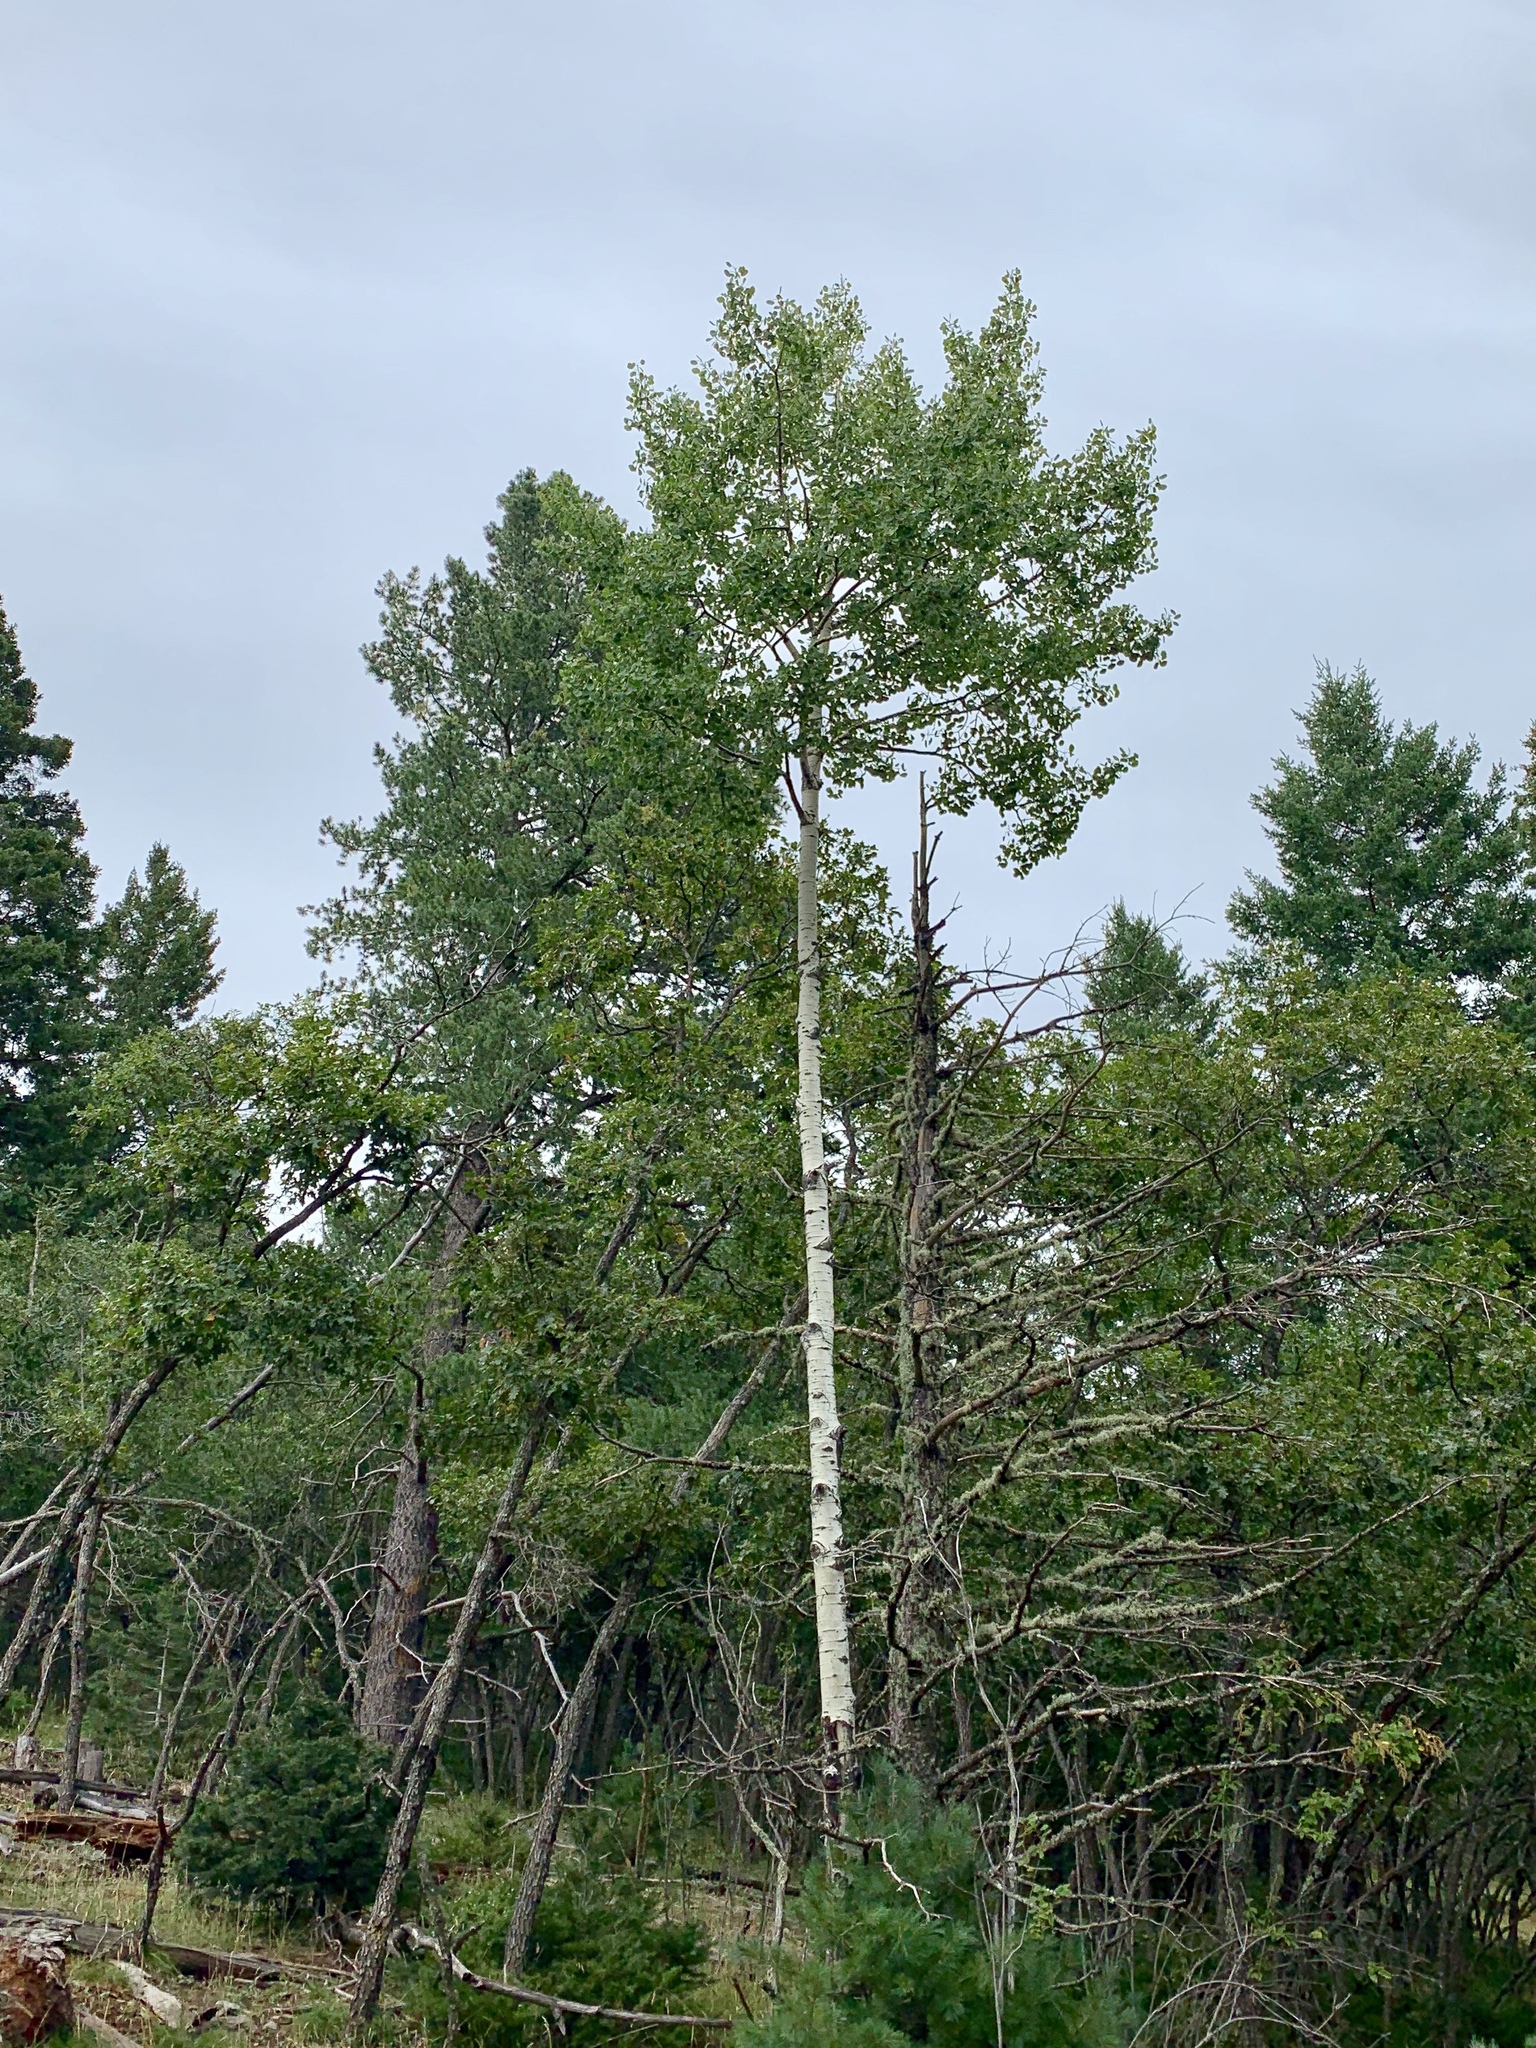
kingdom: Plantae
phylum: Tracheophyta
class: Magnoliopsida
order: Malpighiales
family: Salicaceae
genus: Populus
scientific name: Populus tremuloides
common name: Quaking aspen
